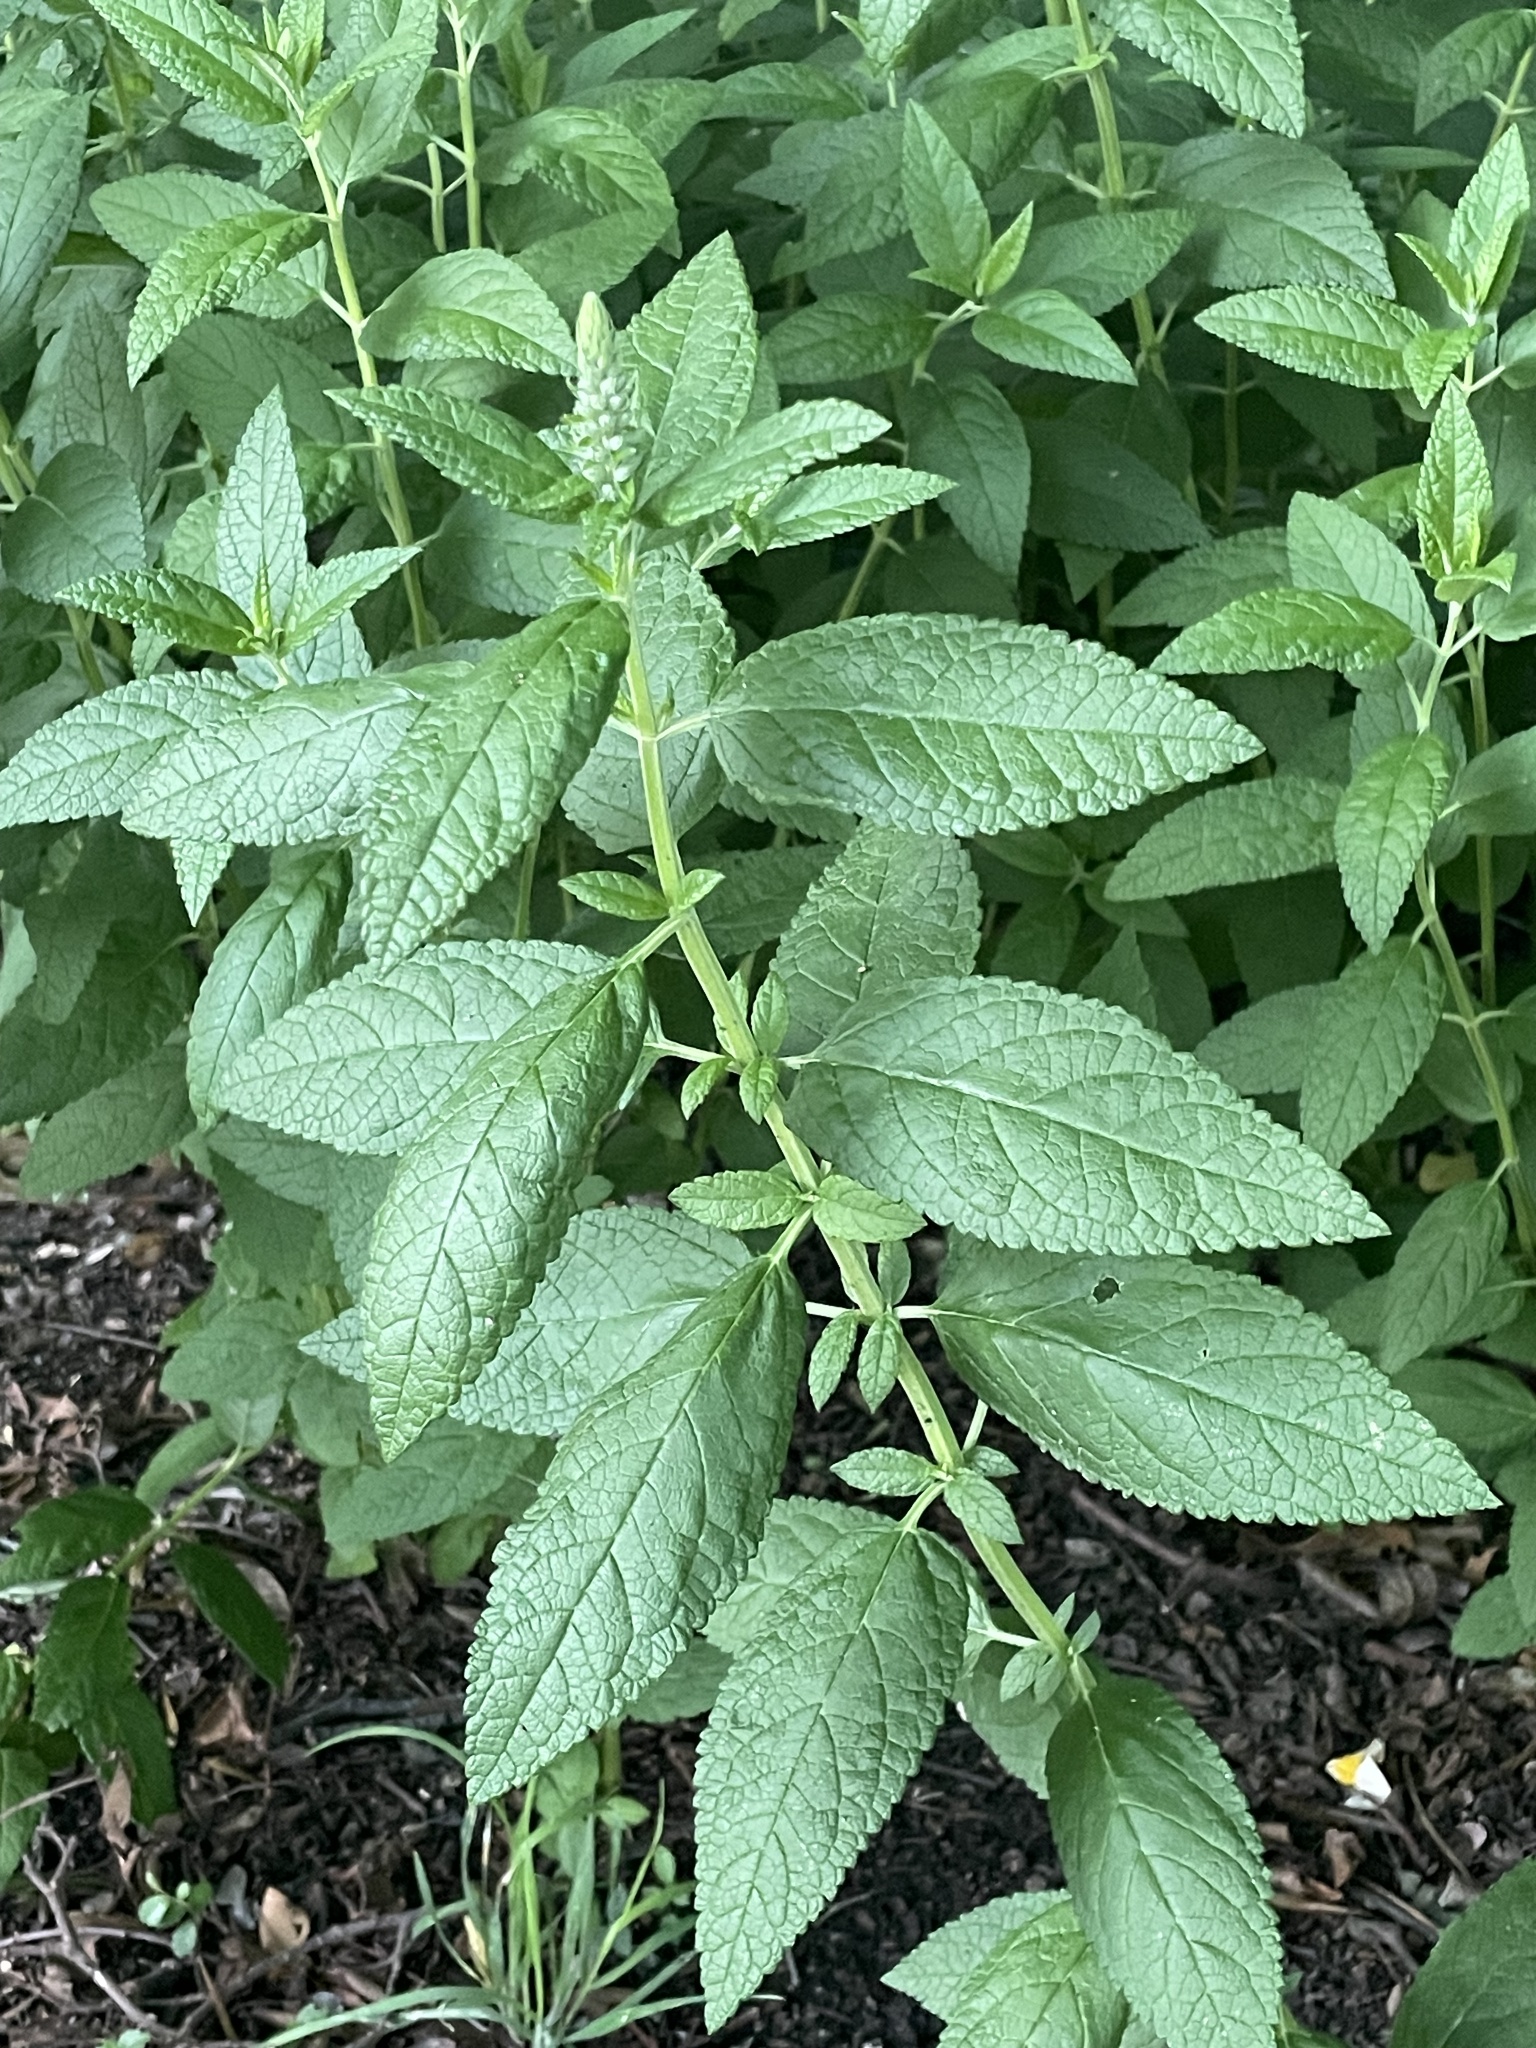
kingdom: Plantae
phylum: Tracheophyta
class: Magnoliopsida
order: Lamiales
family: Lamiaceae
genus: Teucrium
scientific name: Teucrium canadense
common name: American germander
